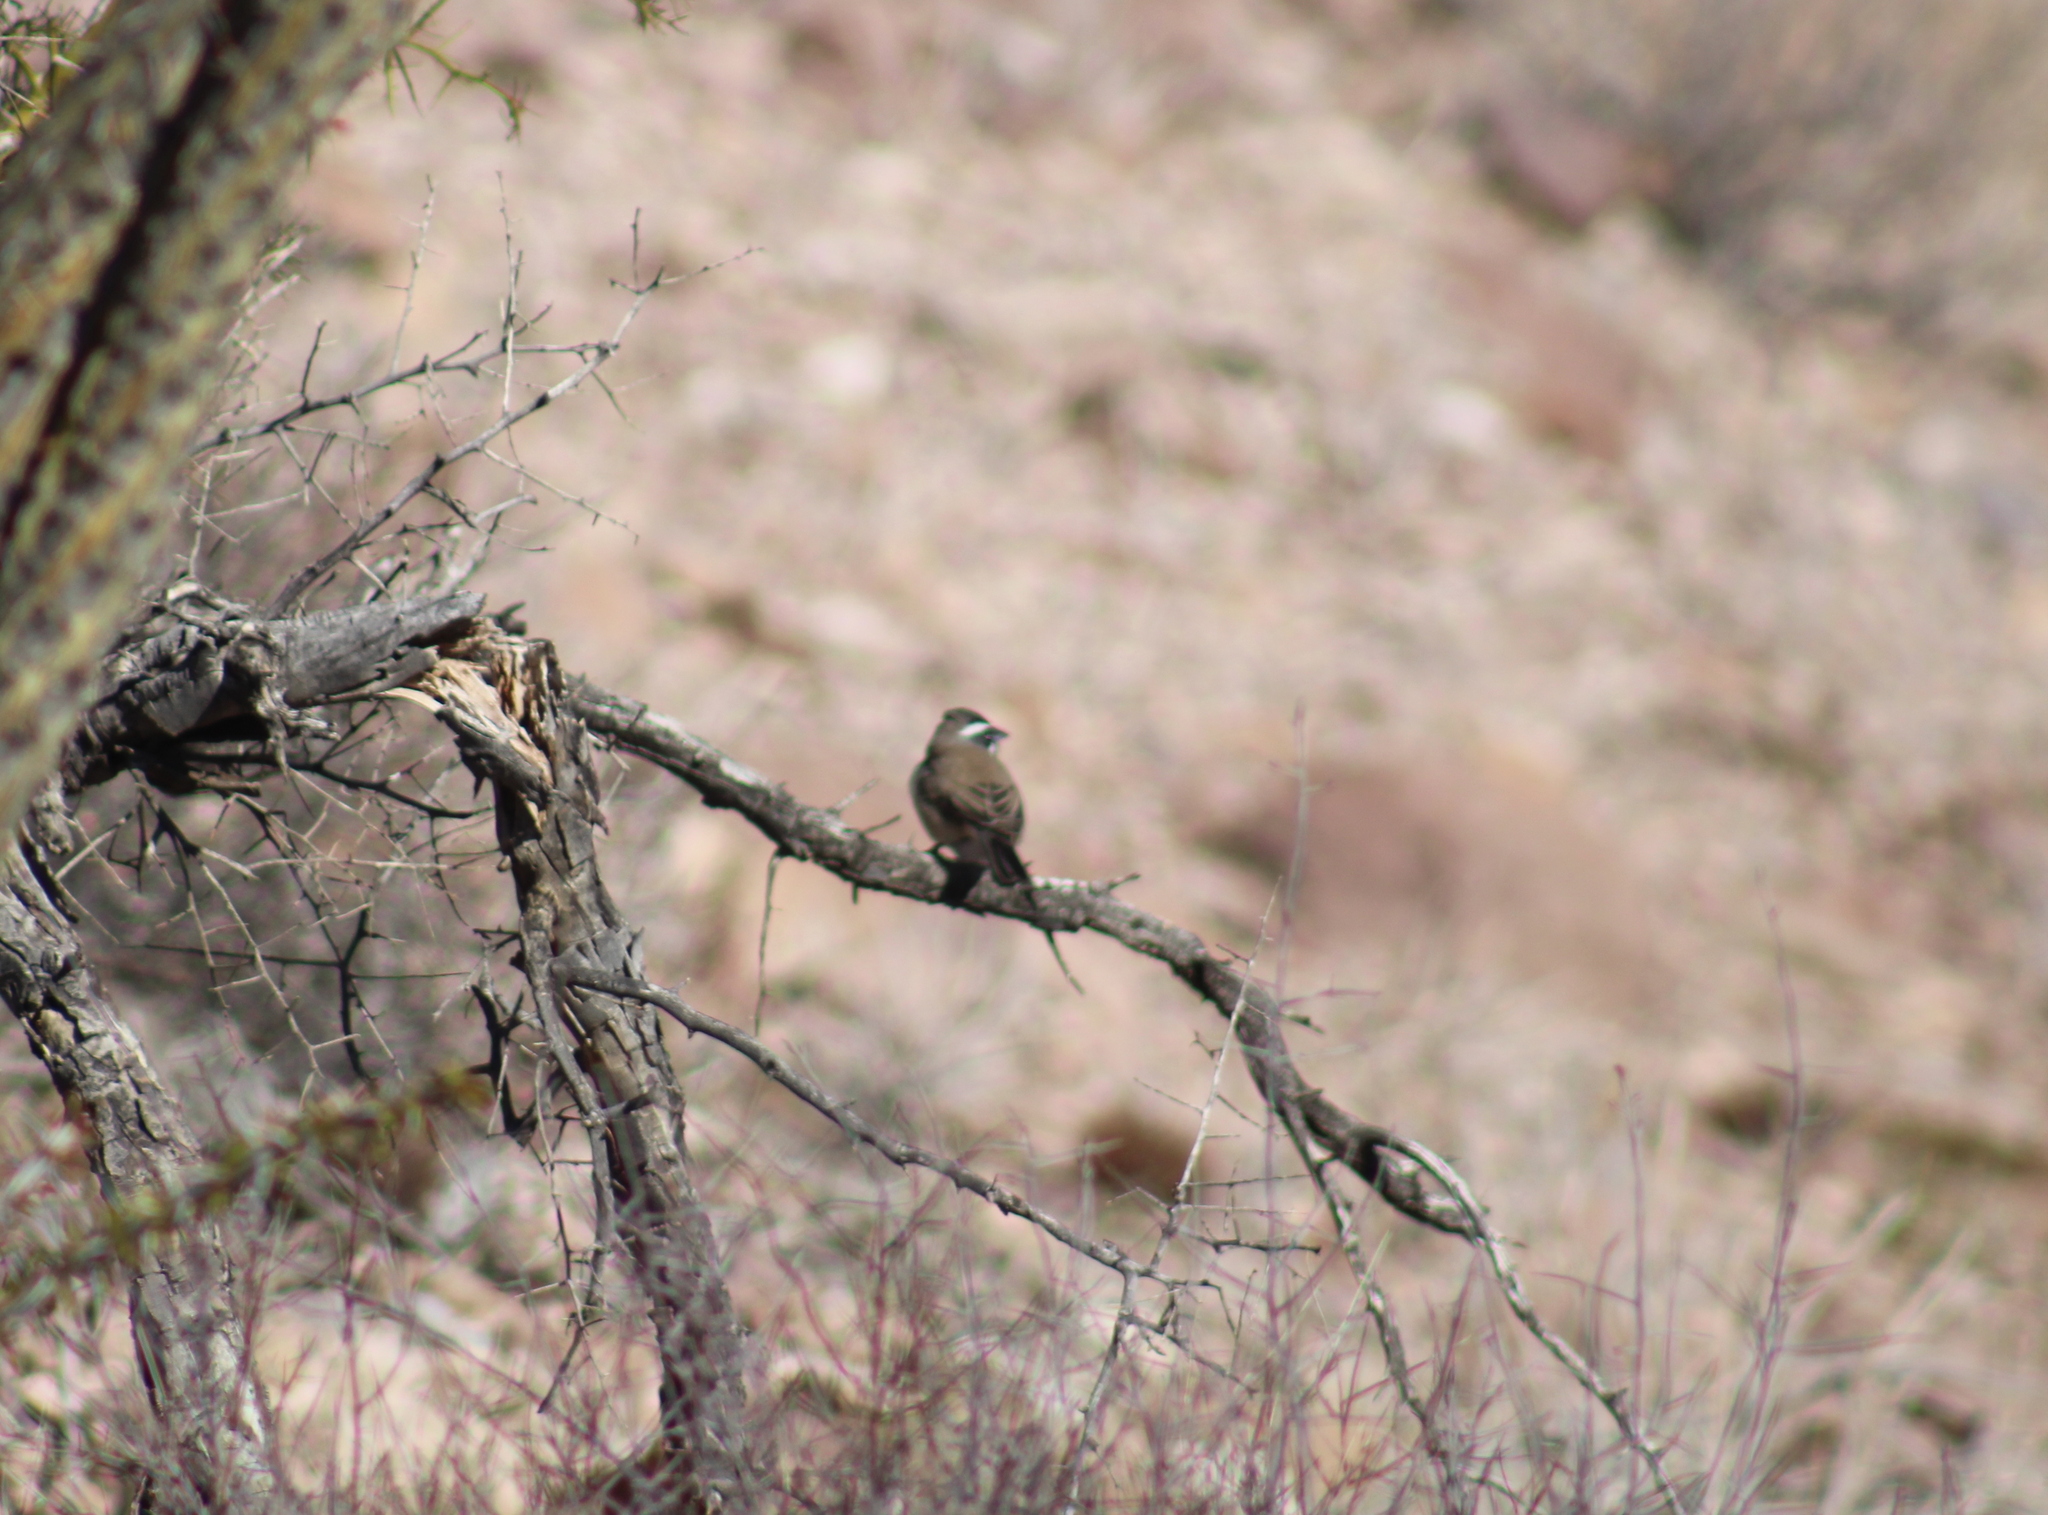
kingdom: Animalia
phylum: Chordata
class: Aves
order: Passeriformes
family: Passerellidae
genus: Amphispiza
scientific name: Amphispiza bilineata
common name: Black-throated sparrow
